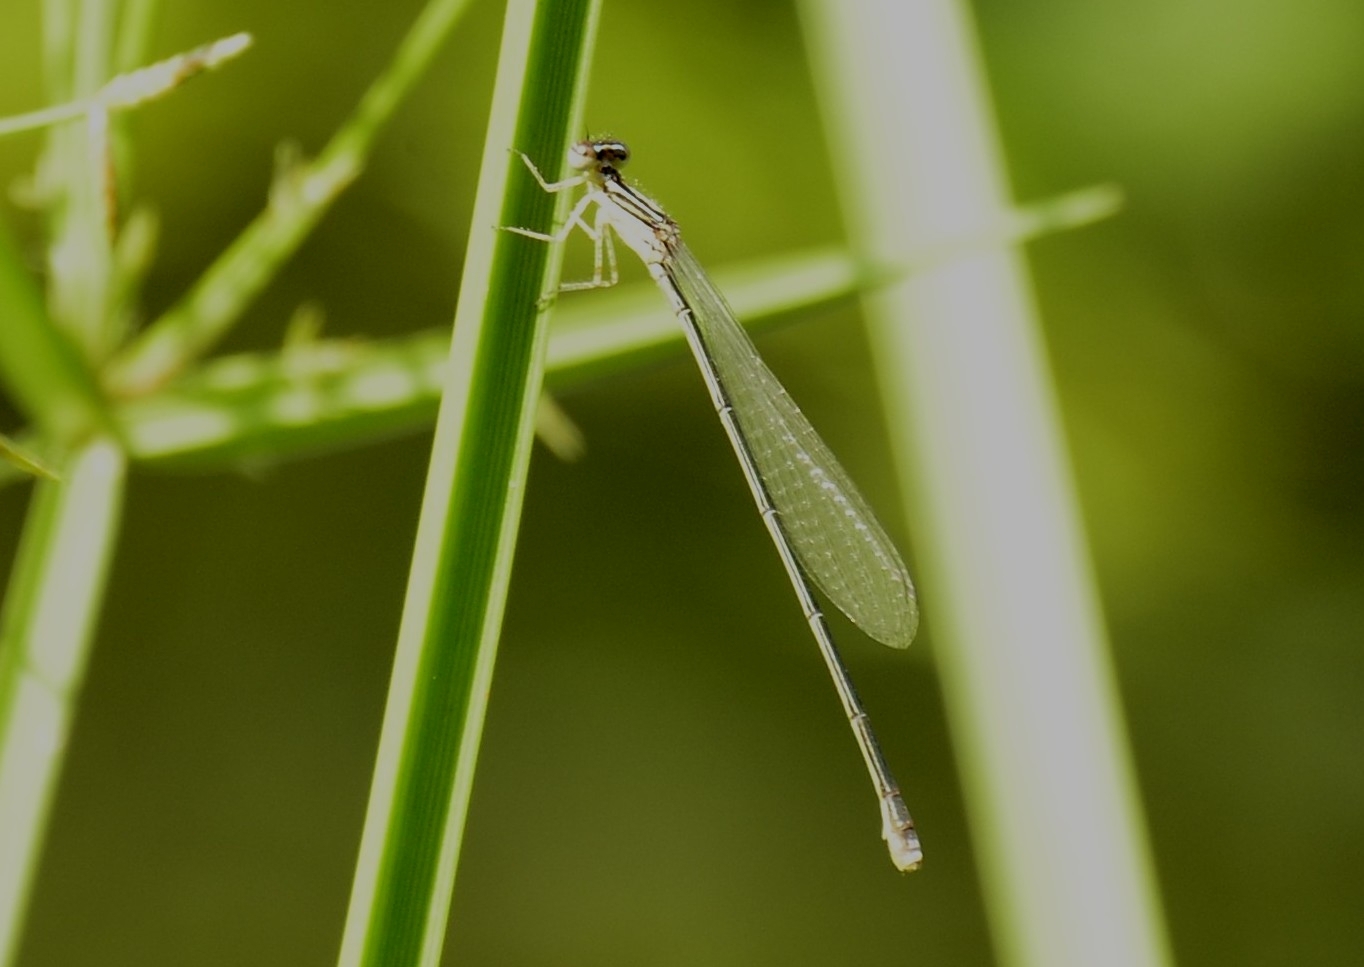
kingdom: Animalia
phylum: Arthropoda
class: Insecta
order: Odonata
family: Coenagrionidae
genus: Aciagrion
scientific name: Aciagrion occidentale
